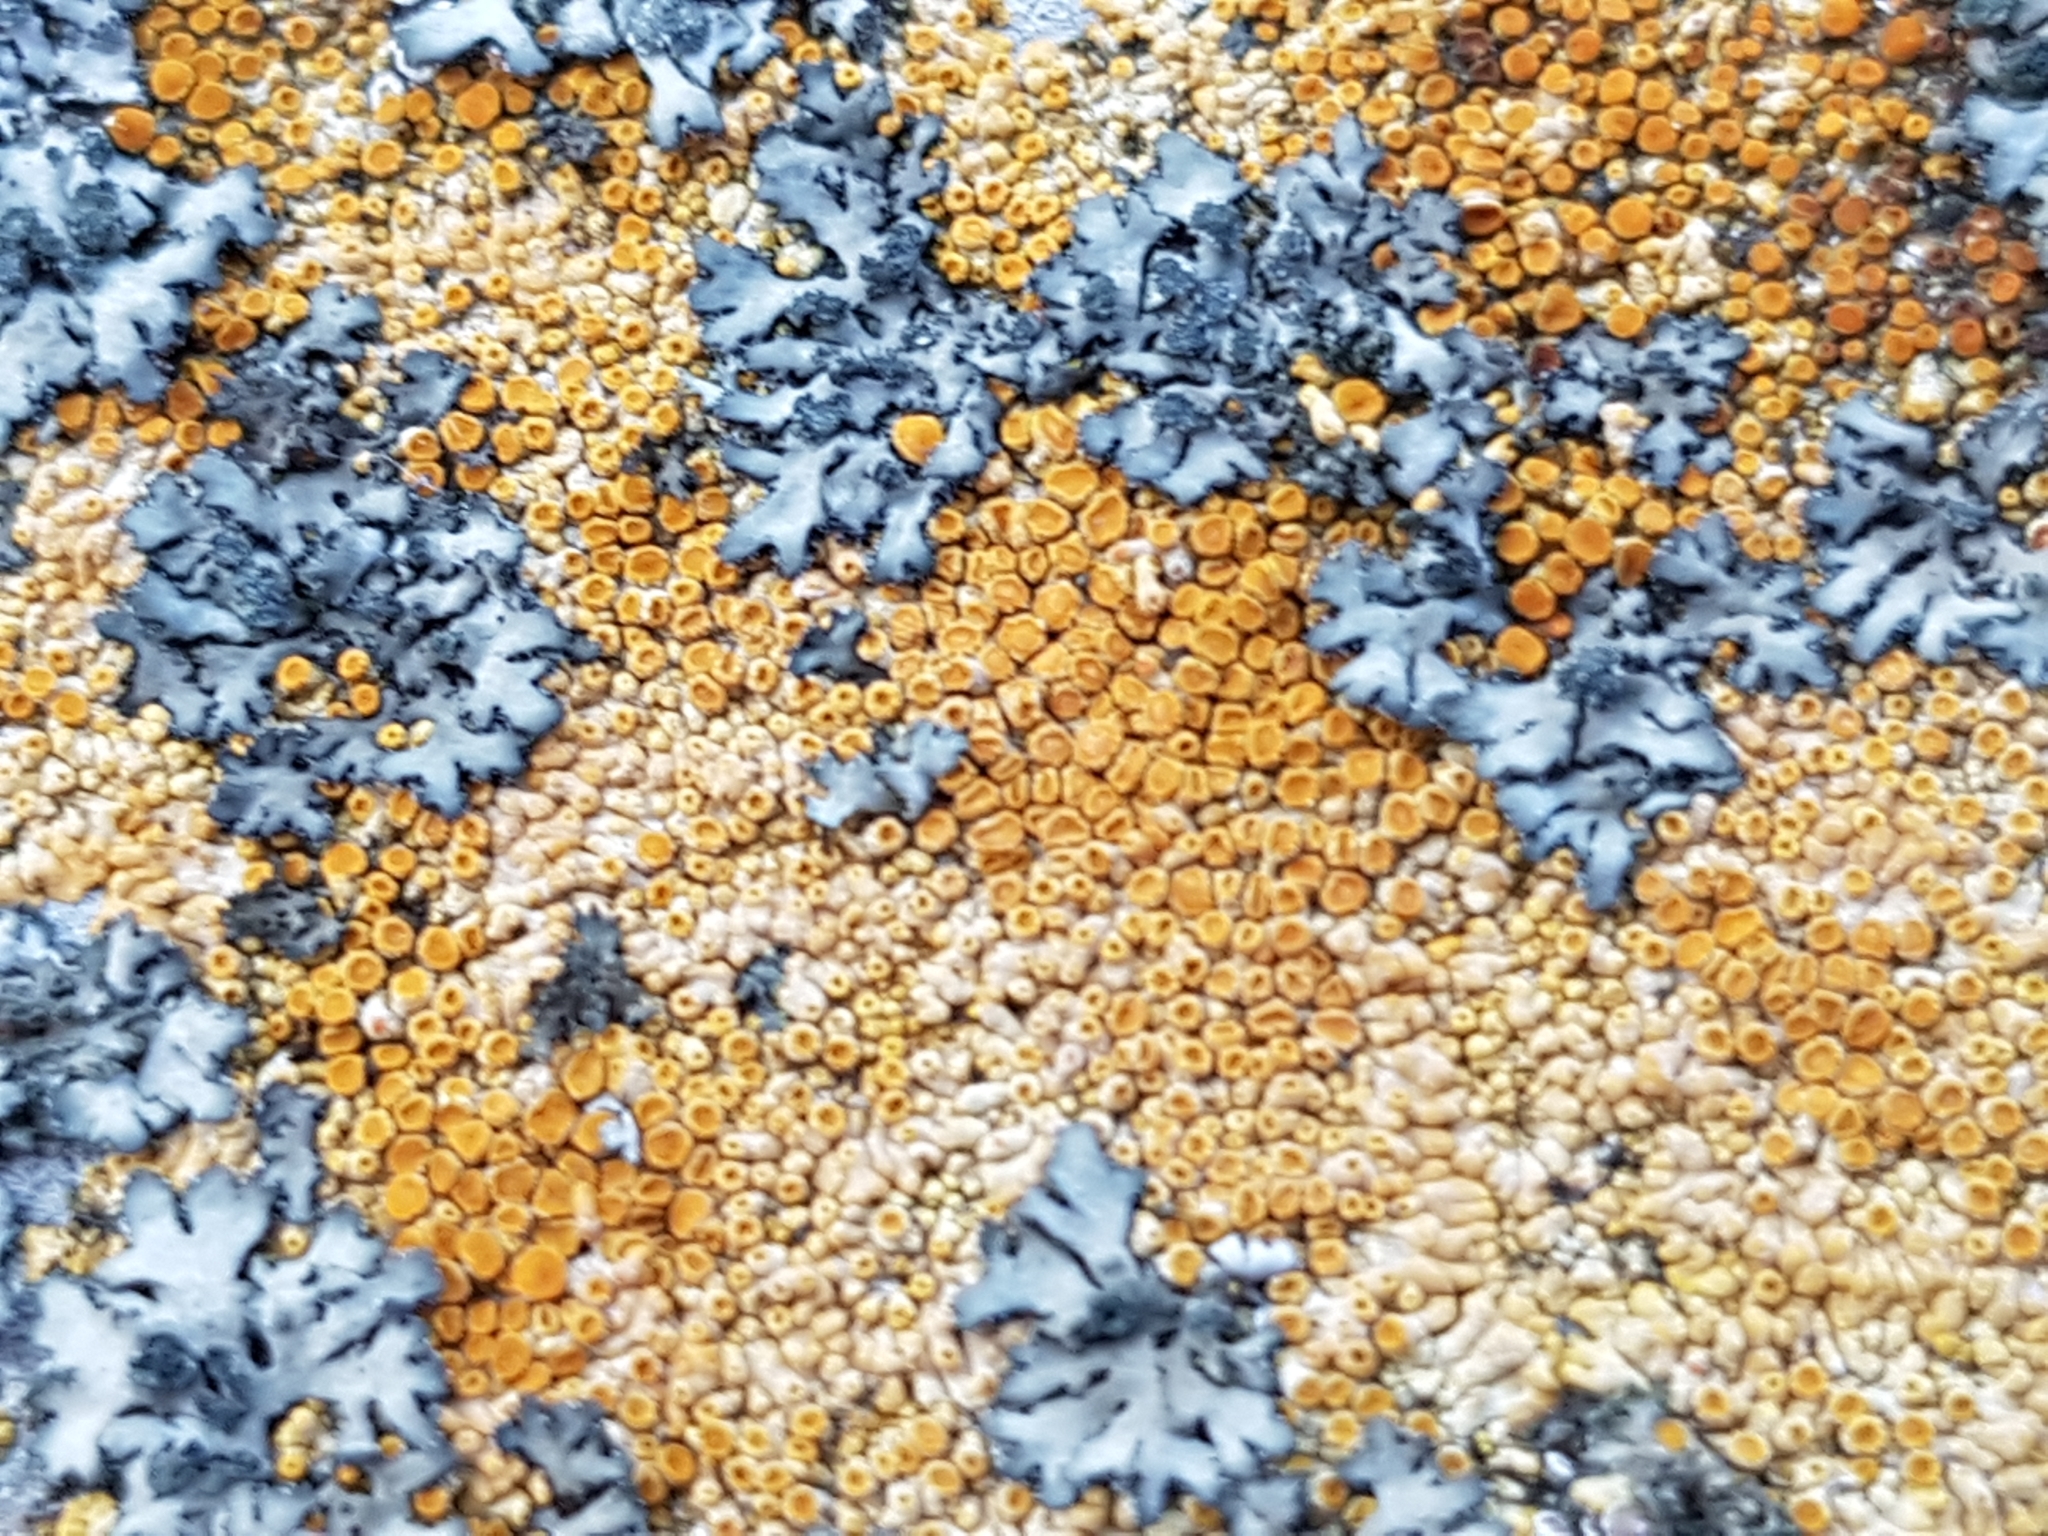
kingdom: Fungi
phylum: Ascomycota
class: Lecanoromycetes
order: Teloschistales
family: Teloschistaceae
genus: Calogaya
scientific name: Calogaya saxicola
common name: Rock jewel lichen
